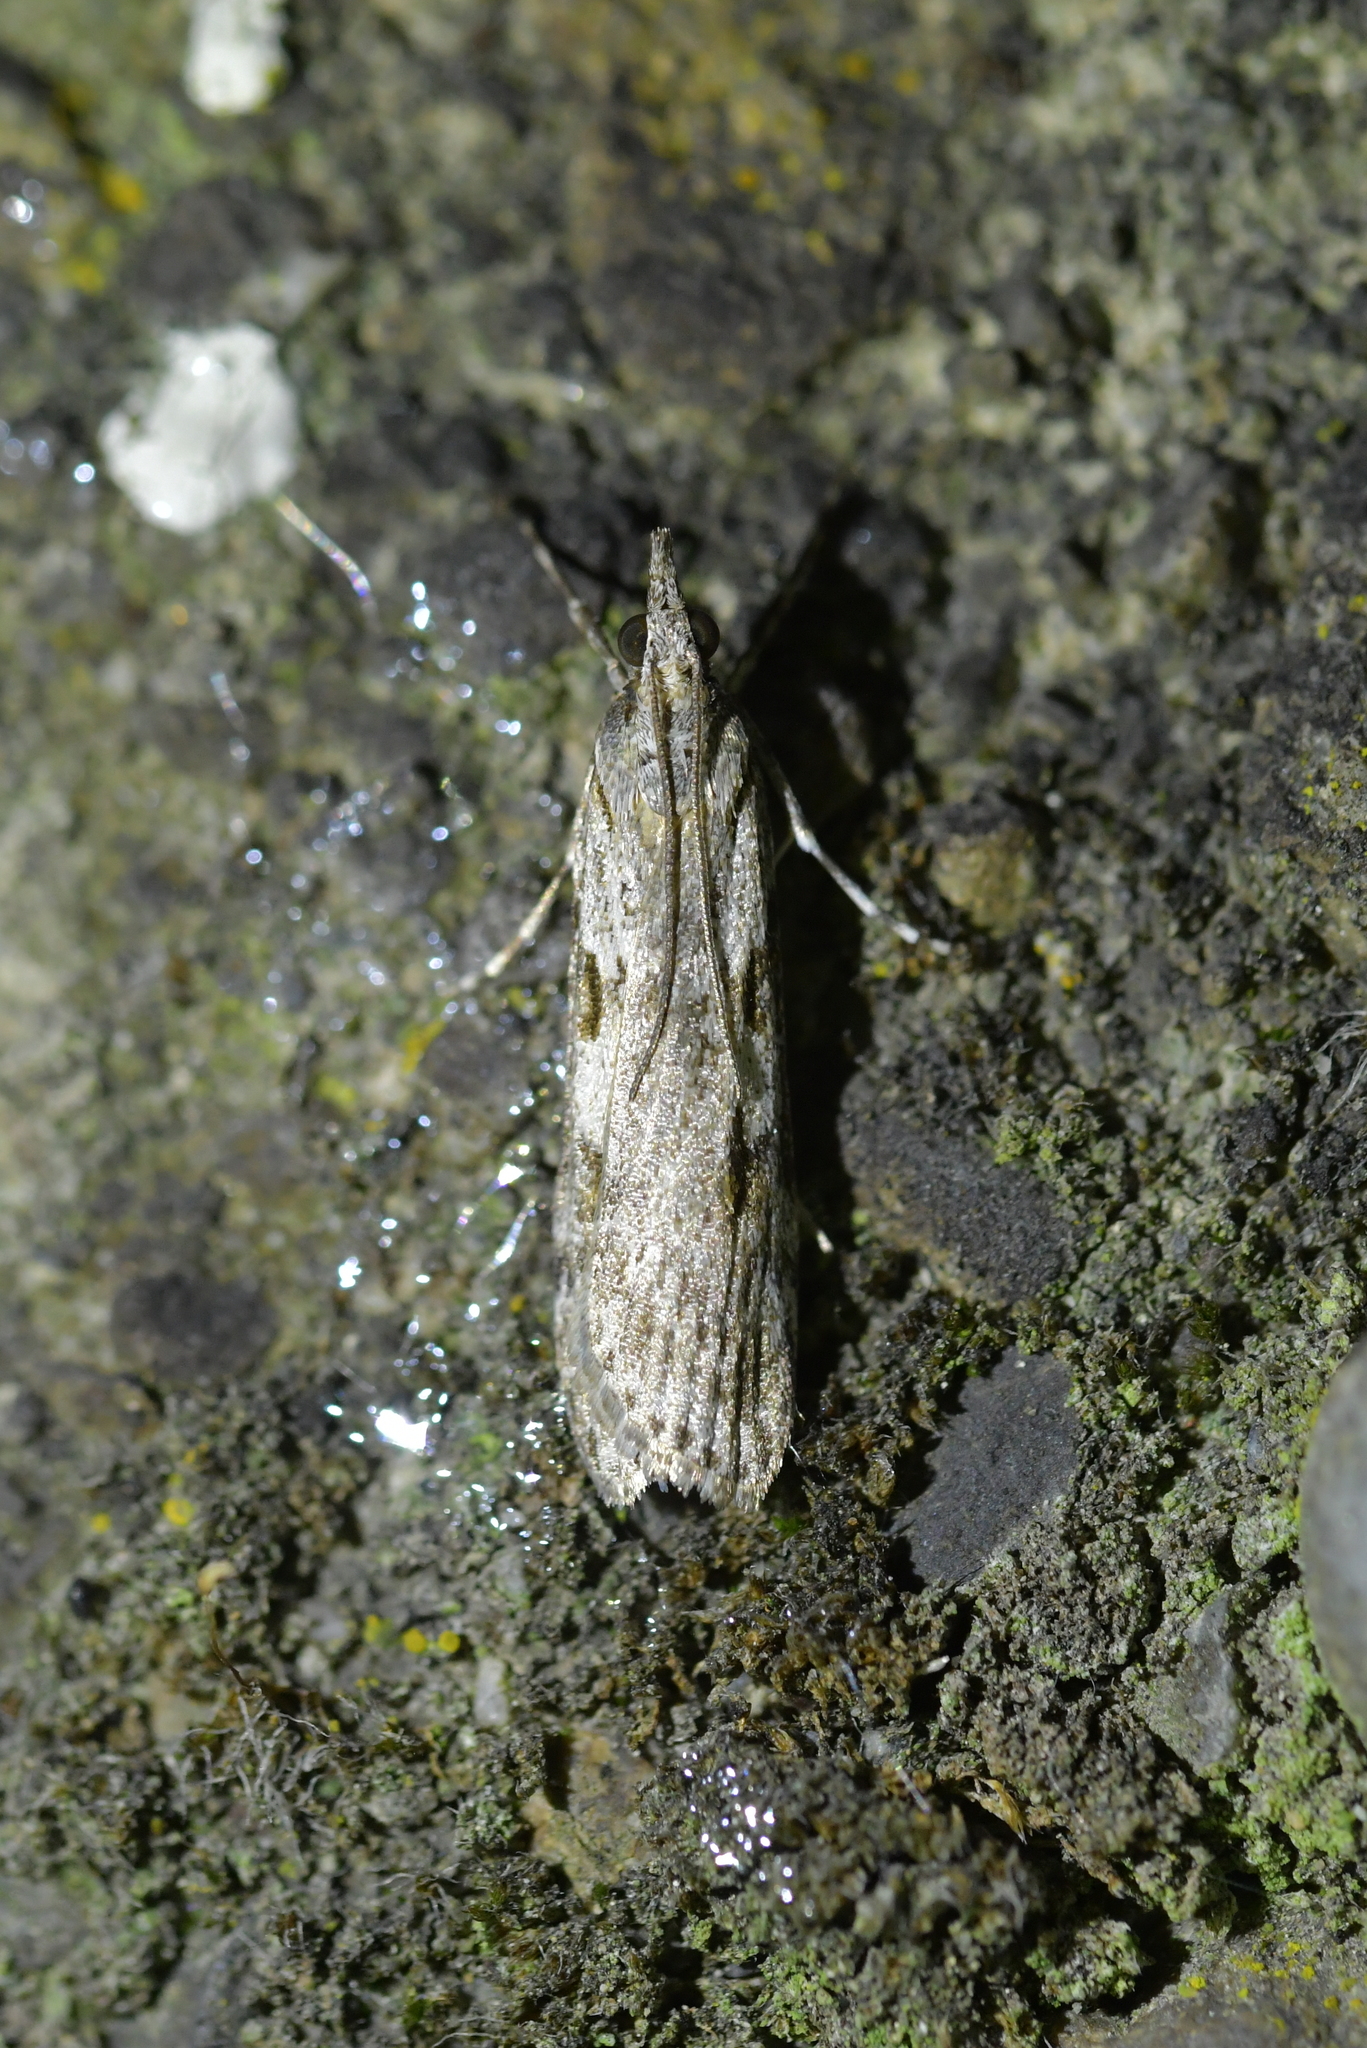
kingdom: Animalia
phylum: Arthropoda
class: Insecta
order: Lepidoptera
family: Crambidae
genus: Scoparia
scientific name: Scoparia halopis
